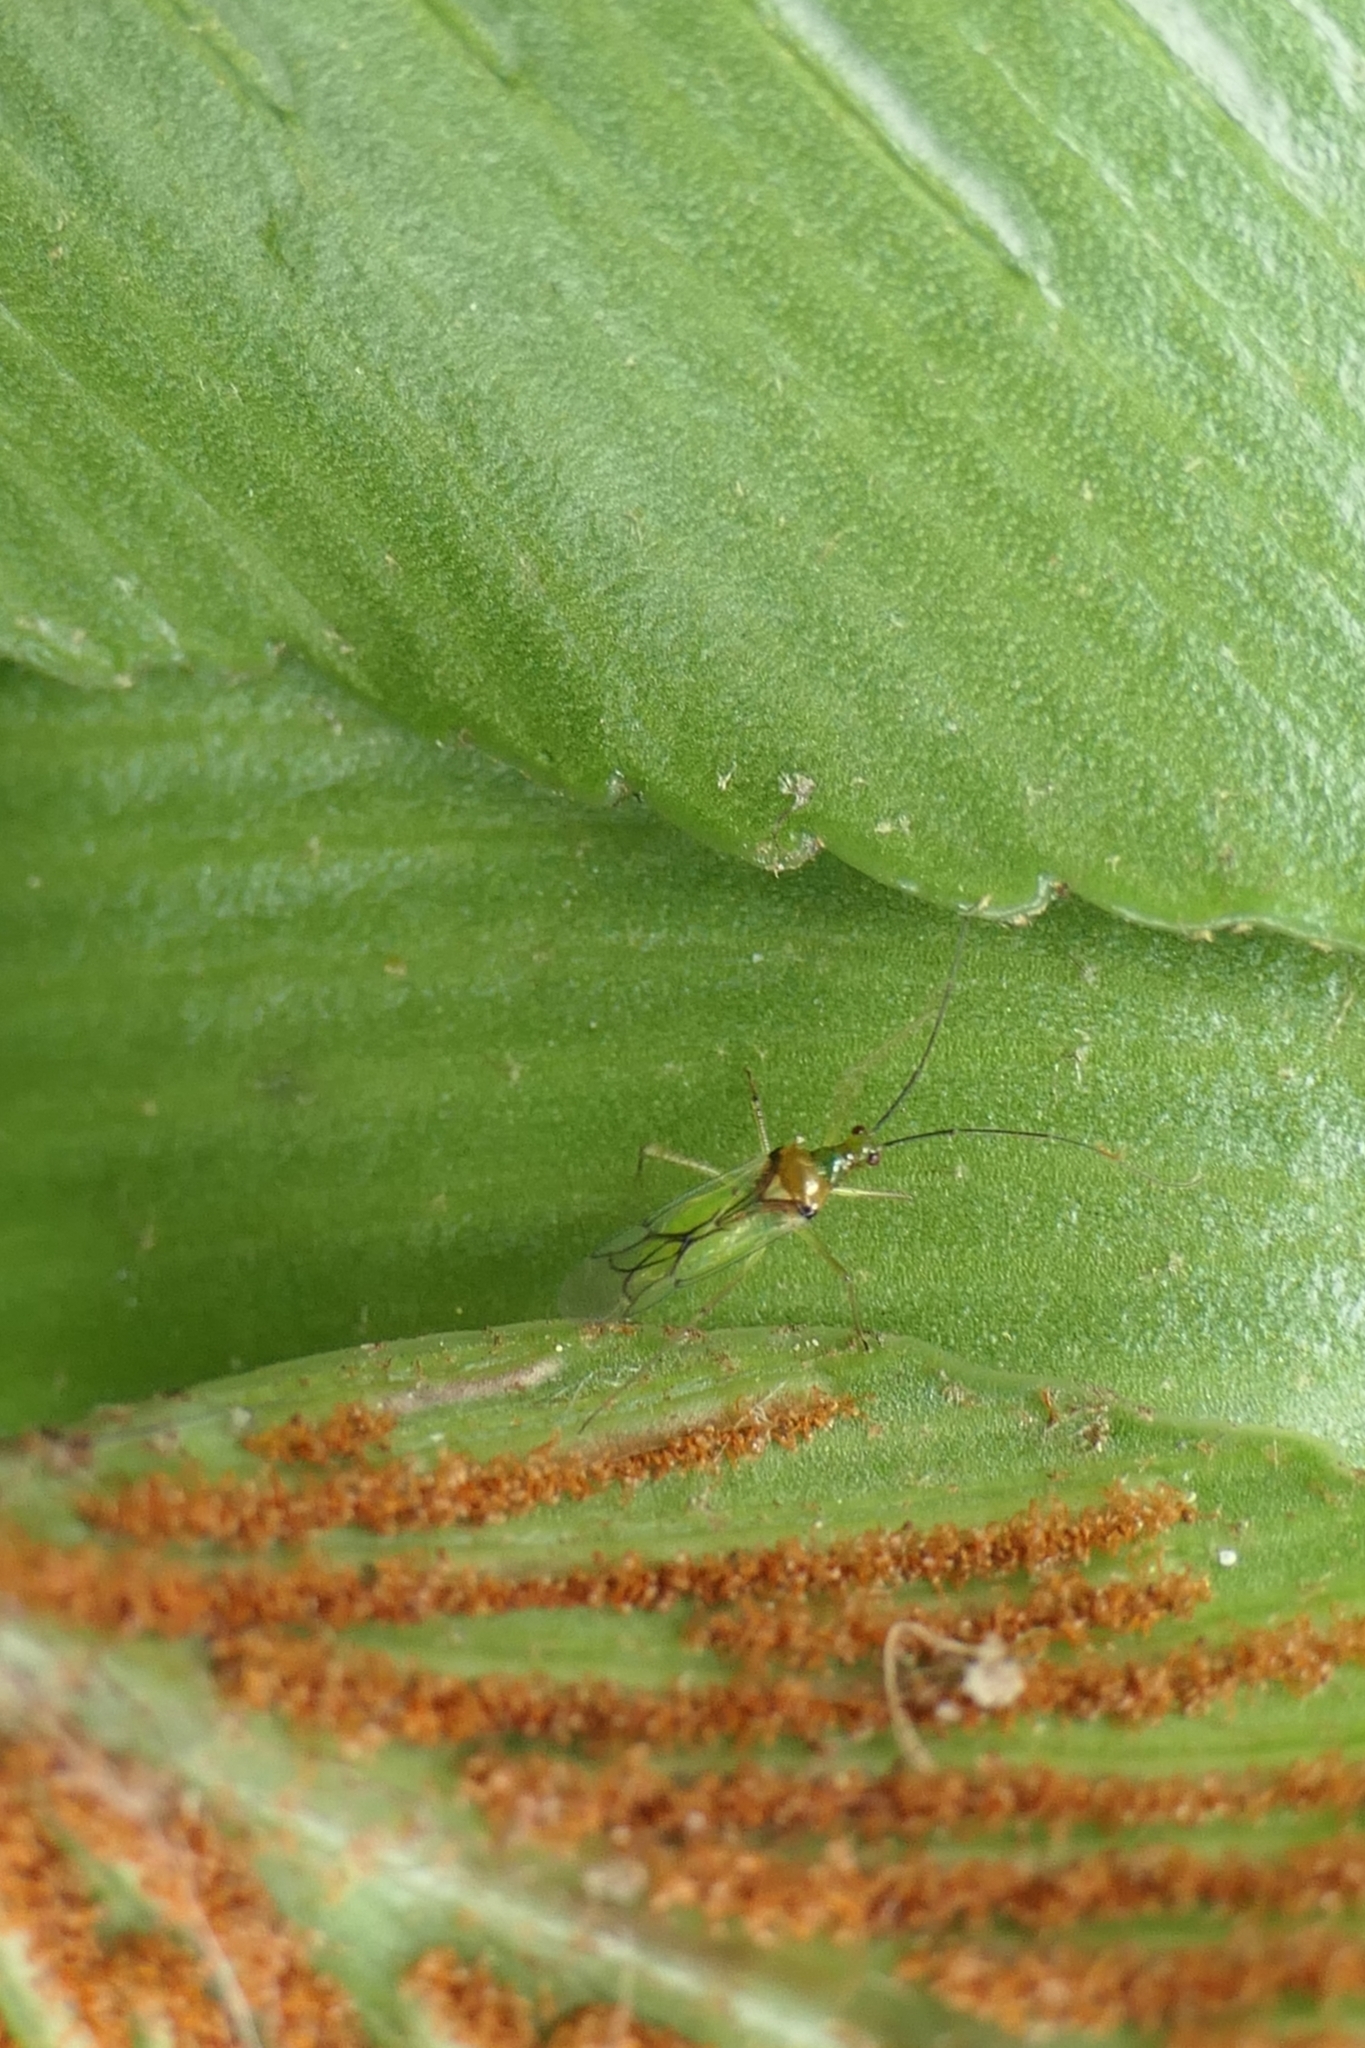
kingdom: Animalia
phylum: Arthropoda
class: Insecta
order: Hemiptera
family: Miridae
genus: Felisacus
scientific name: Felisacus elegantulus
